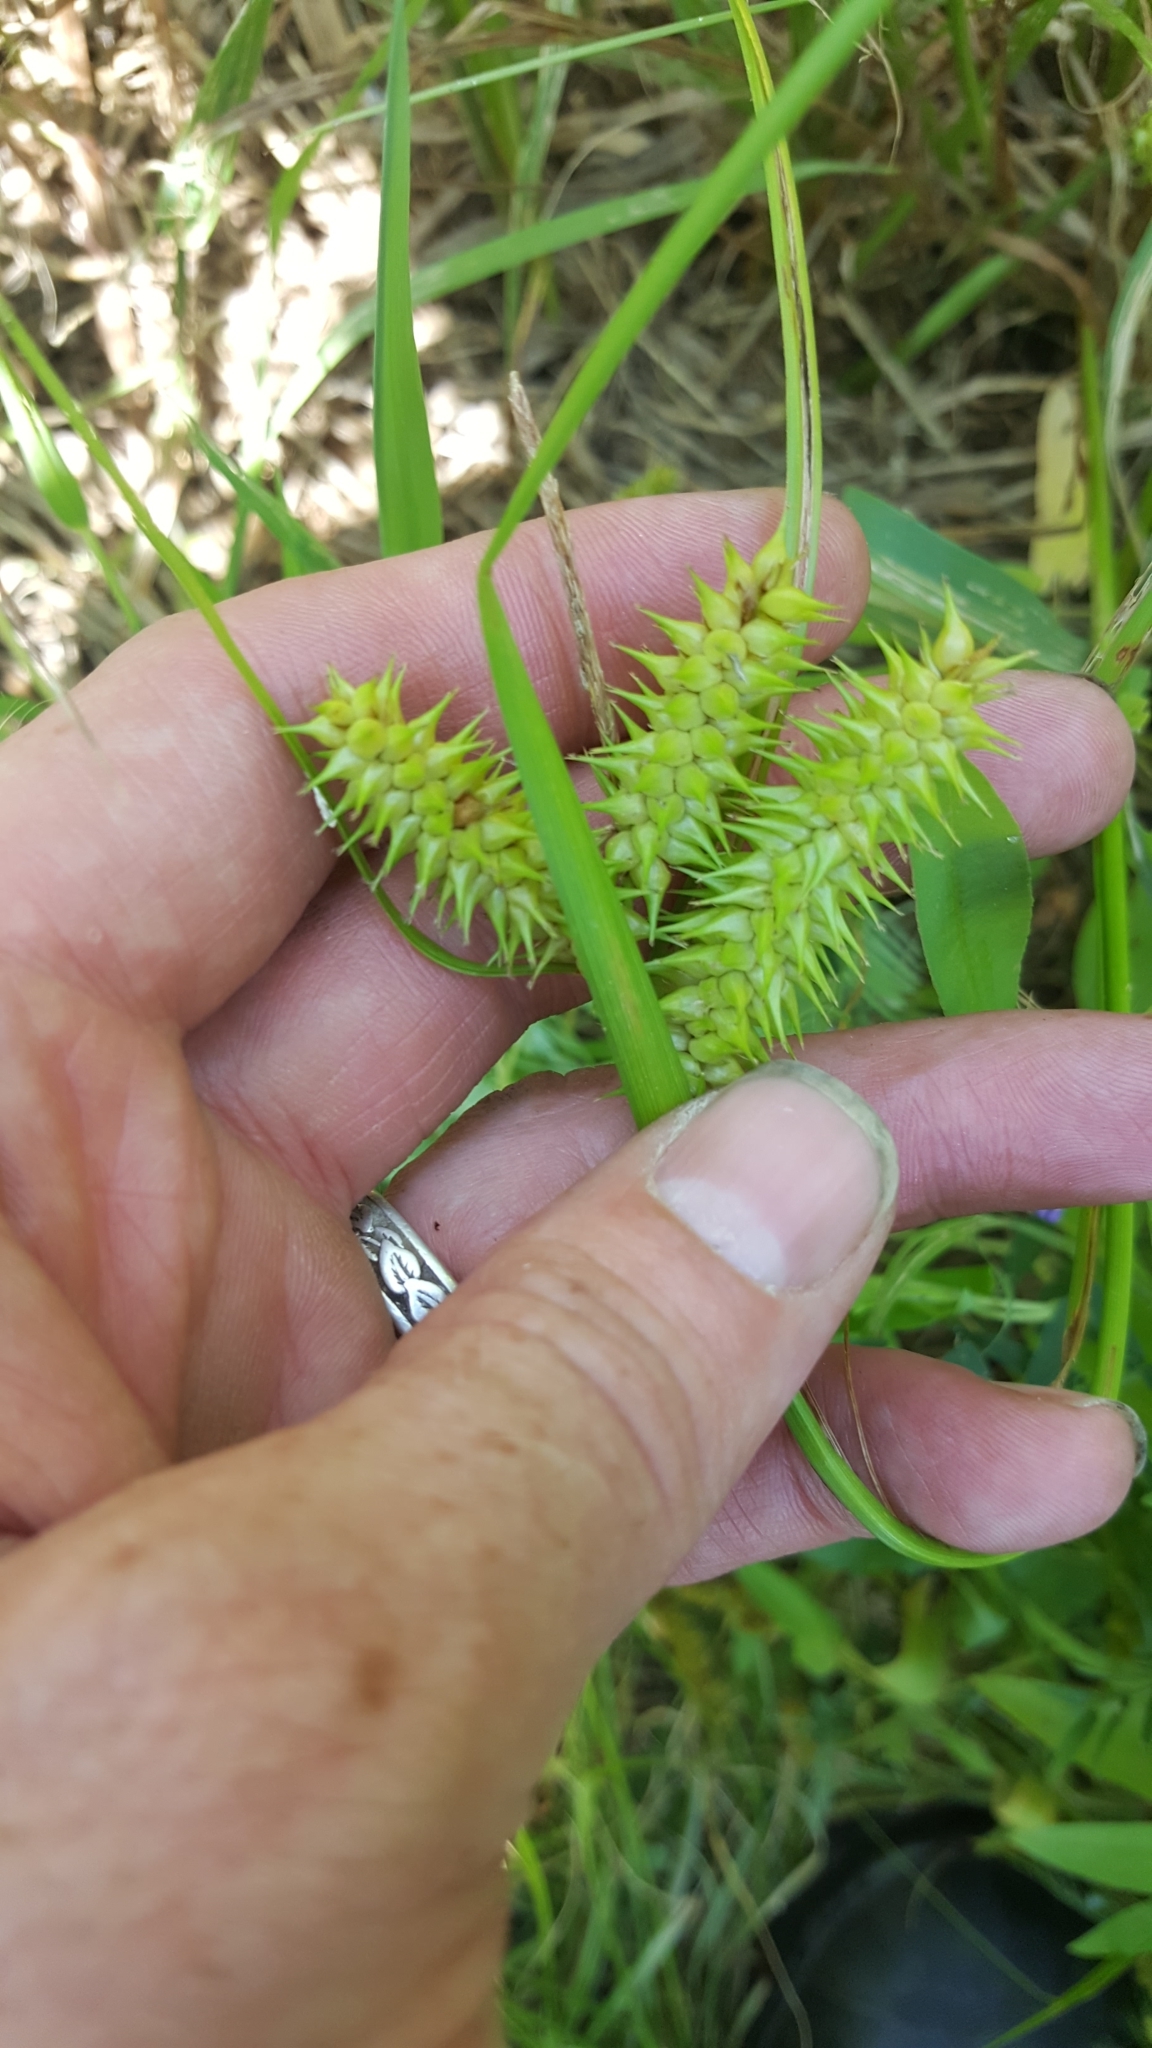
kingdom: Plantae
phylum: Tracheophyta
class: Liliopsida
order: Poales
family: Cyperaceae
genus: Carex
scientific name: Carex retrorsa
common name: Knot-sheath sedge
